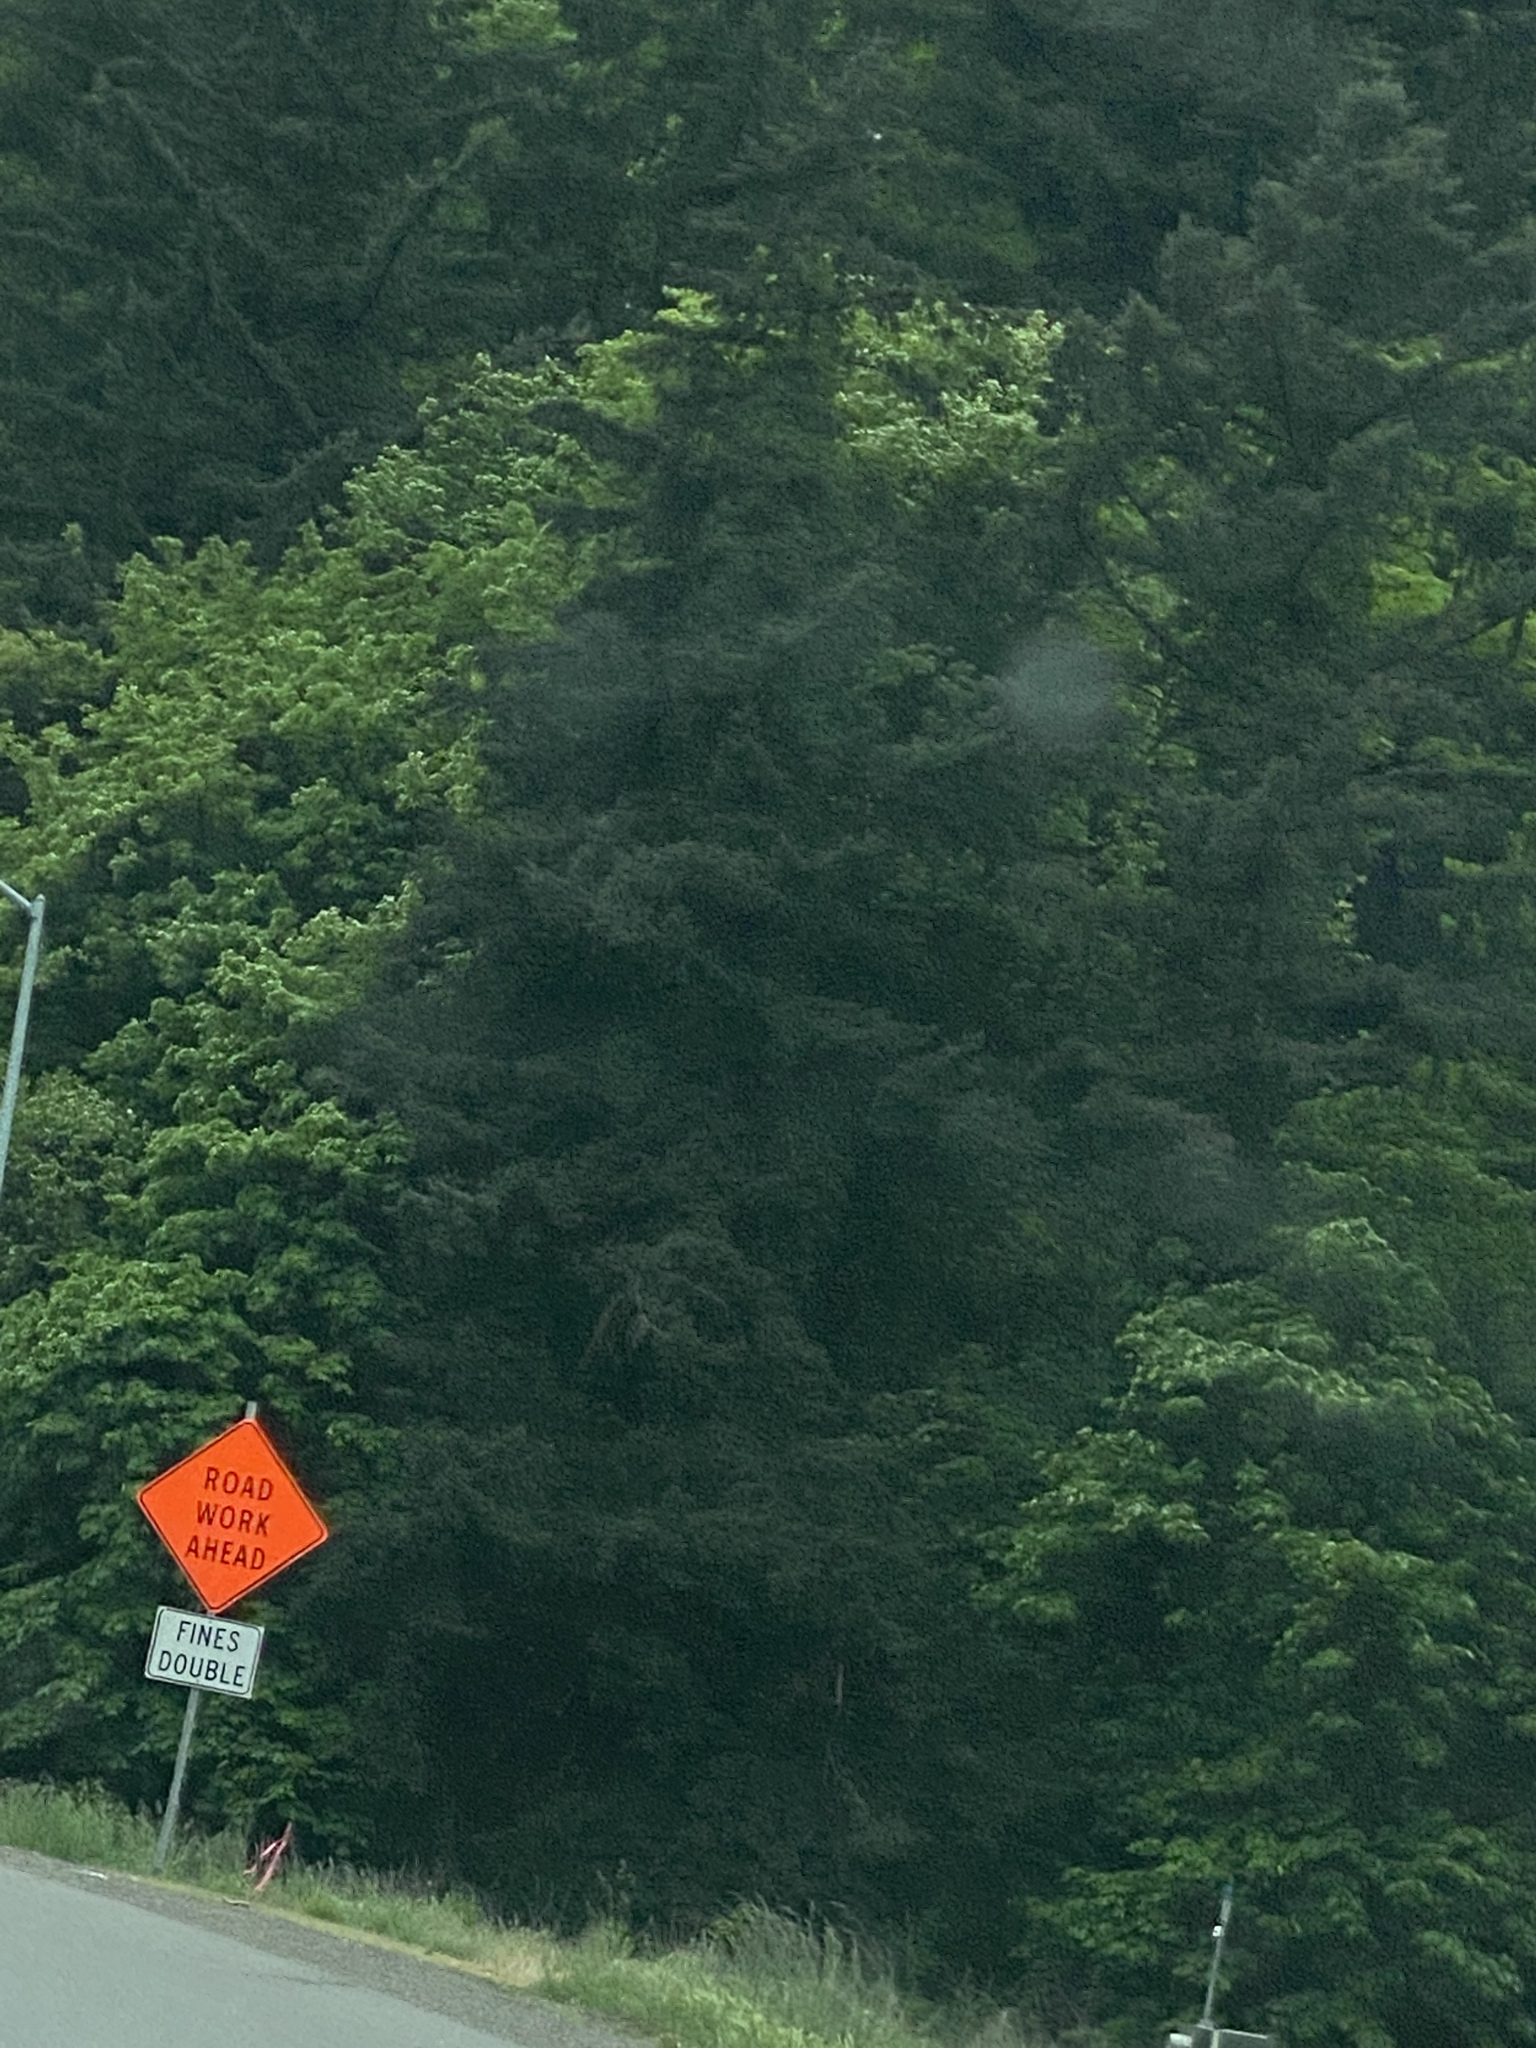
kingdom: Plantae
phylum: Tracheophyta
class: Pinopsida
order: Pinales
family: Pinaceae
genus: Pseudotsuga
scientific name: Pseudotsuga menziesii
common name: Douglas fir
